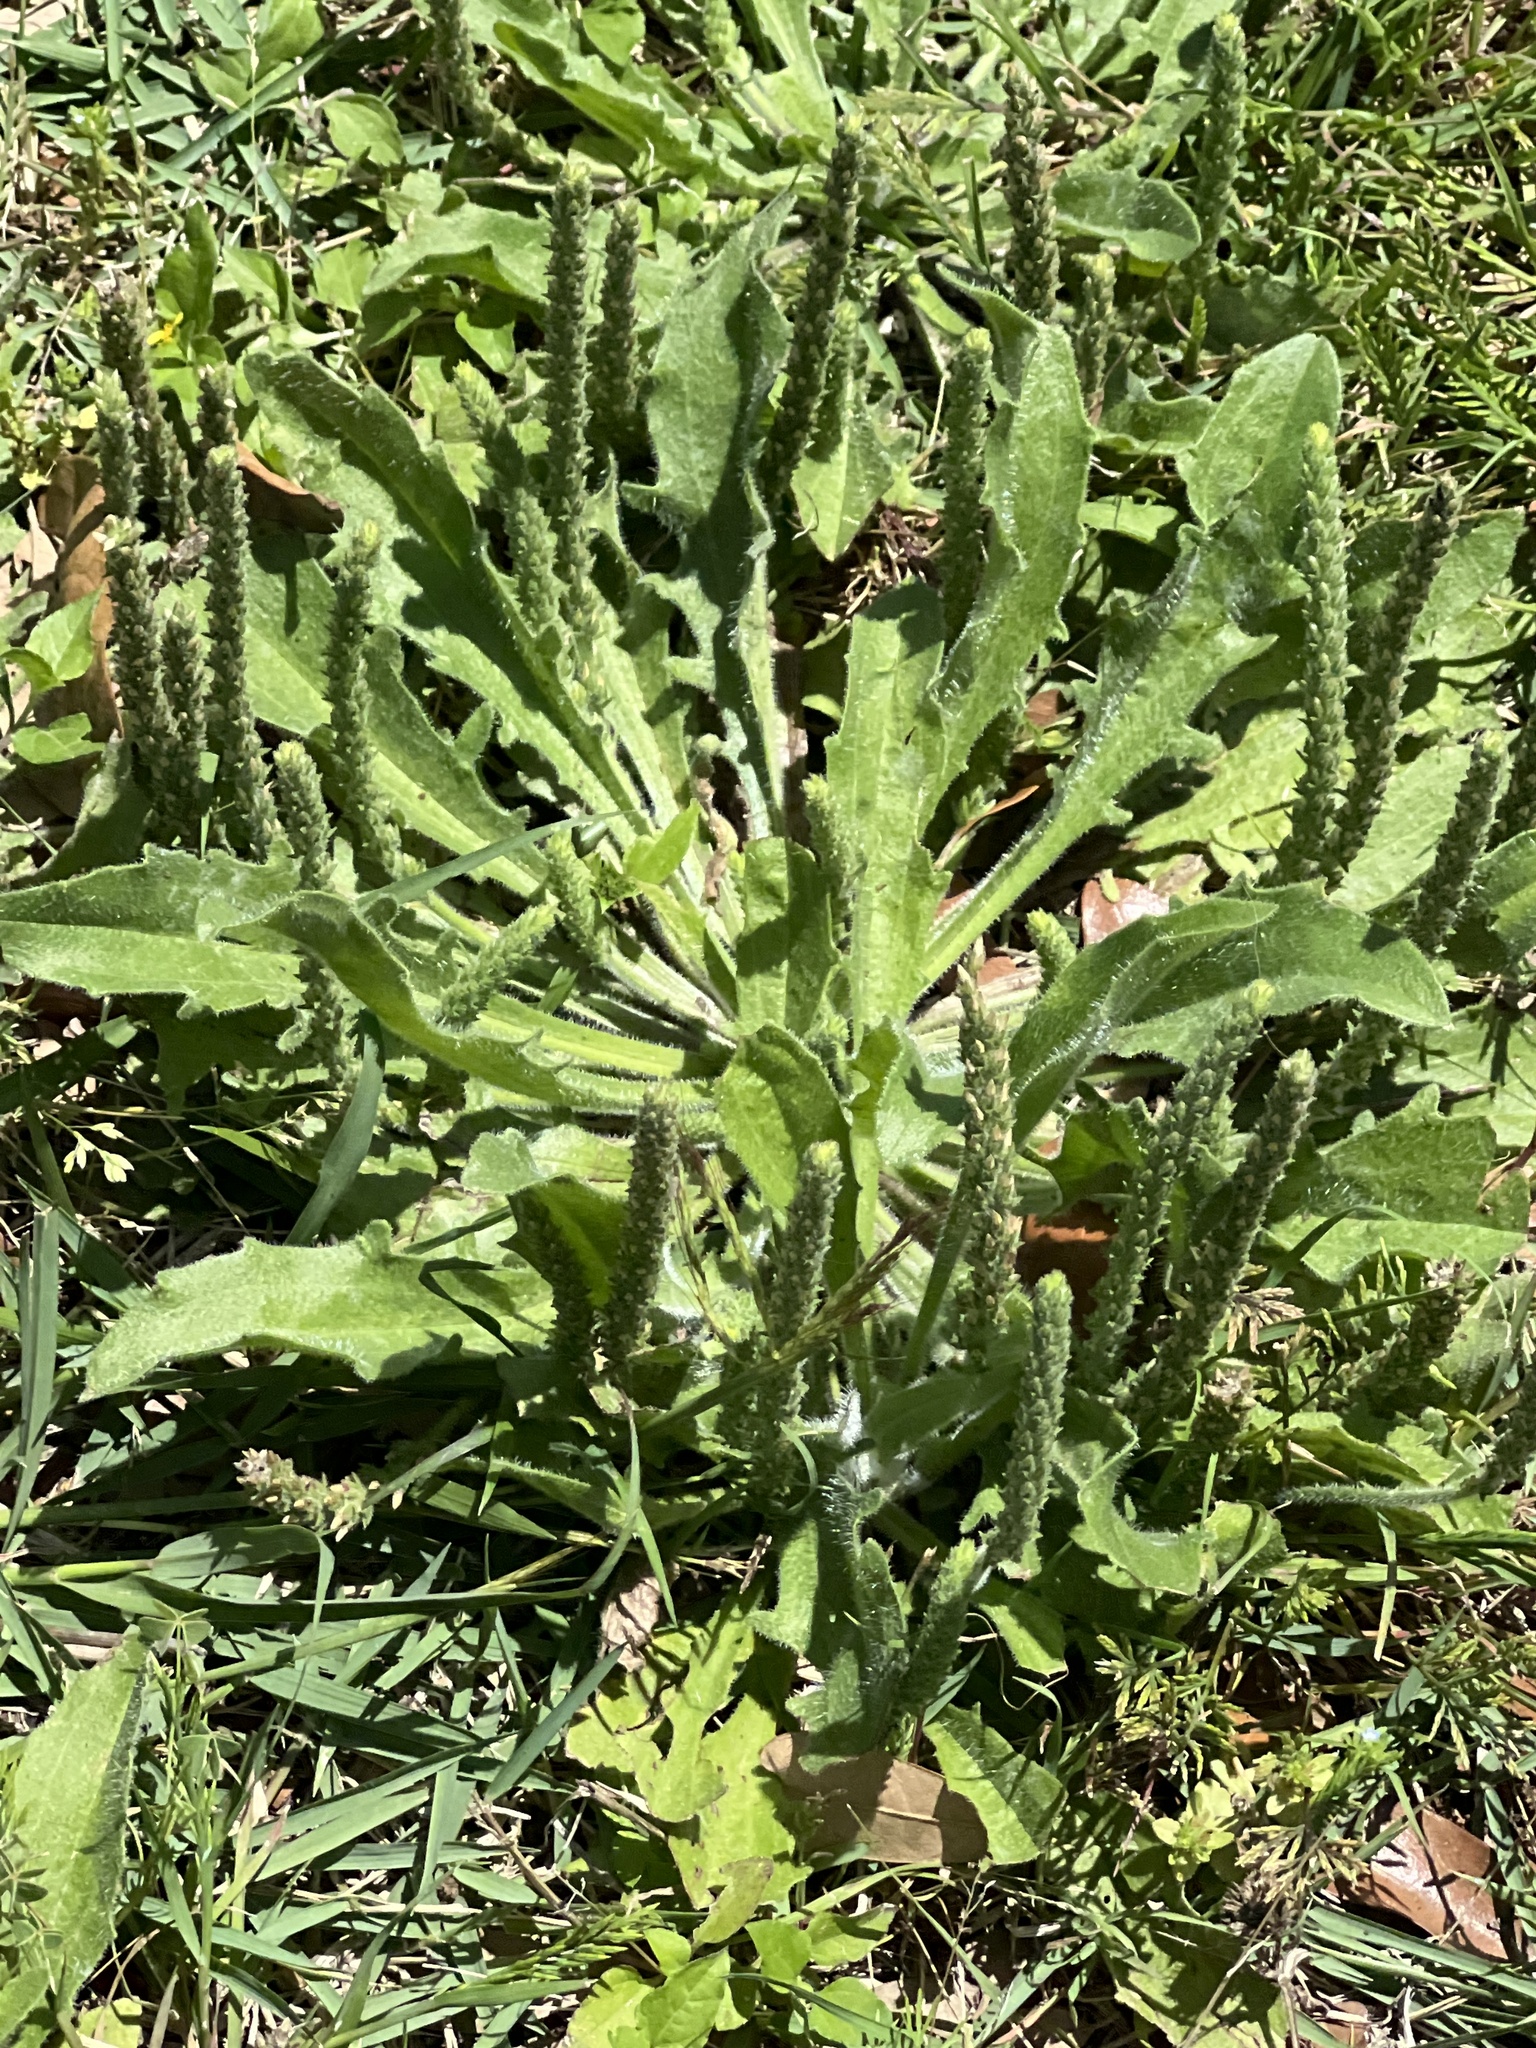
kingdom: Plantae
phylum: Tracheophyta
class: Magnoliopsida
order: Lamiales
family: Plantaginaceae
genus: Plantago
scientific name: Plantago rhodosperma
